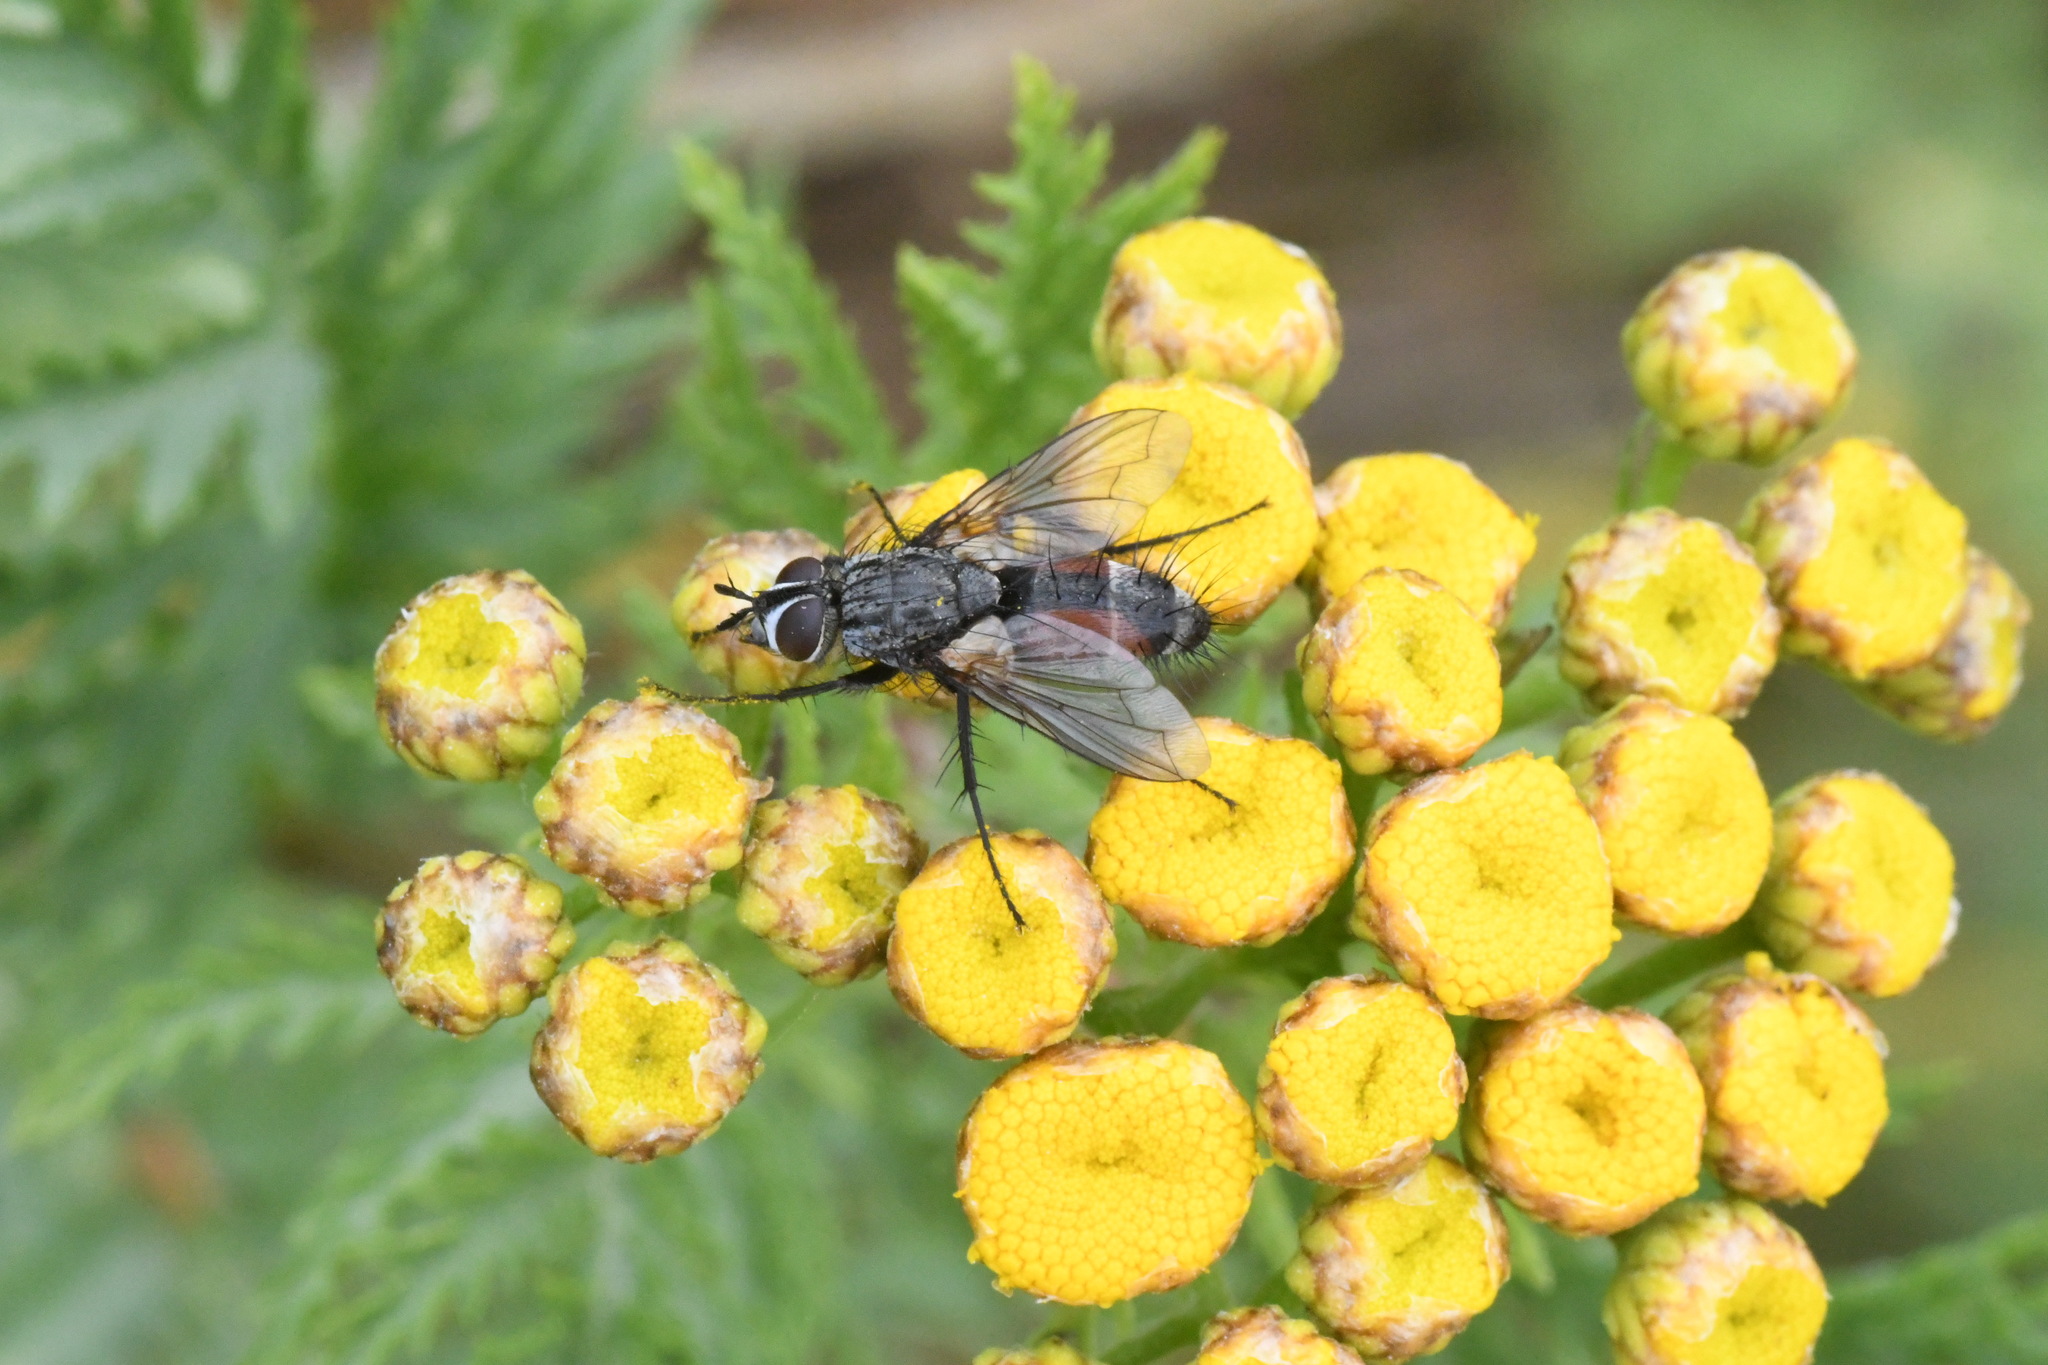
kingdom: Animalia
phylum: Arthropoda
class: Insecta
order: Diptera
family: Tachinidae
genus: Eriothrix
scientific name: Eriothrix rufomaculatus
